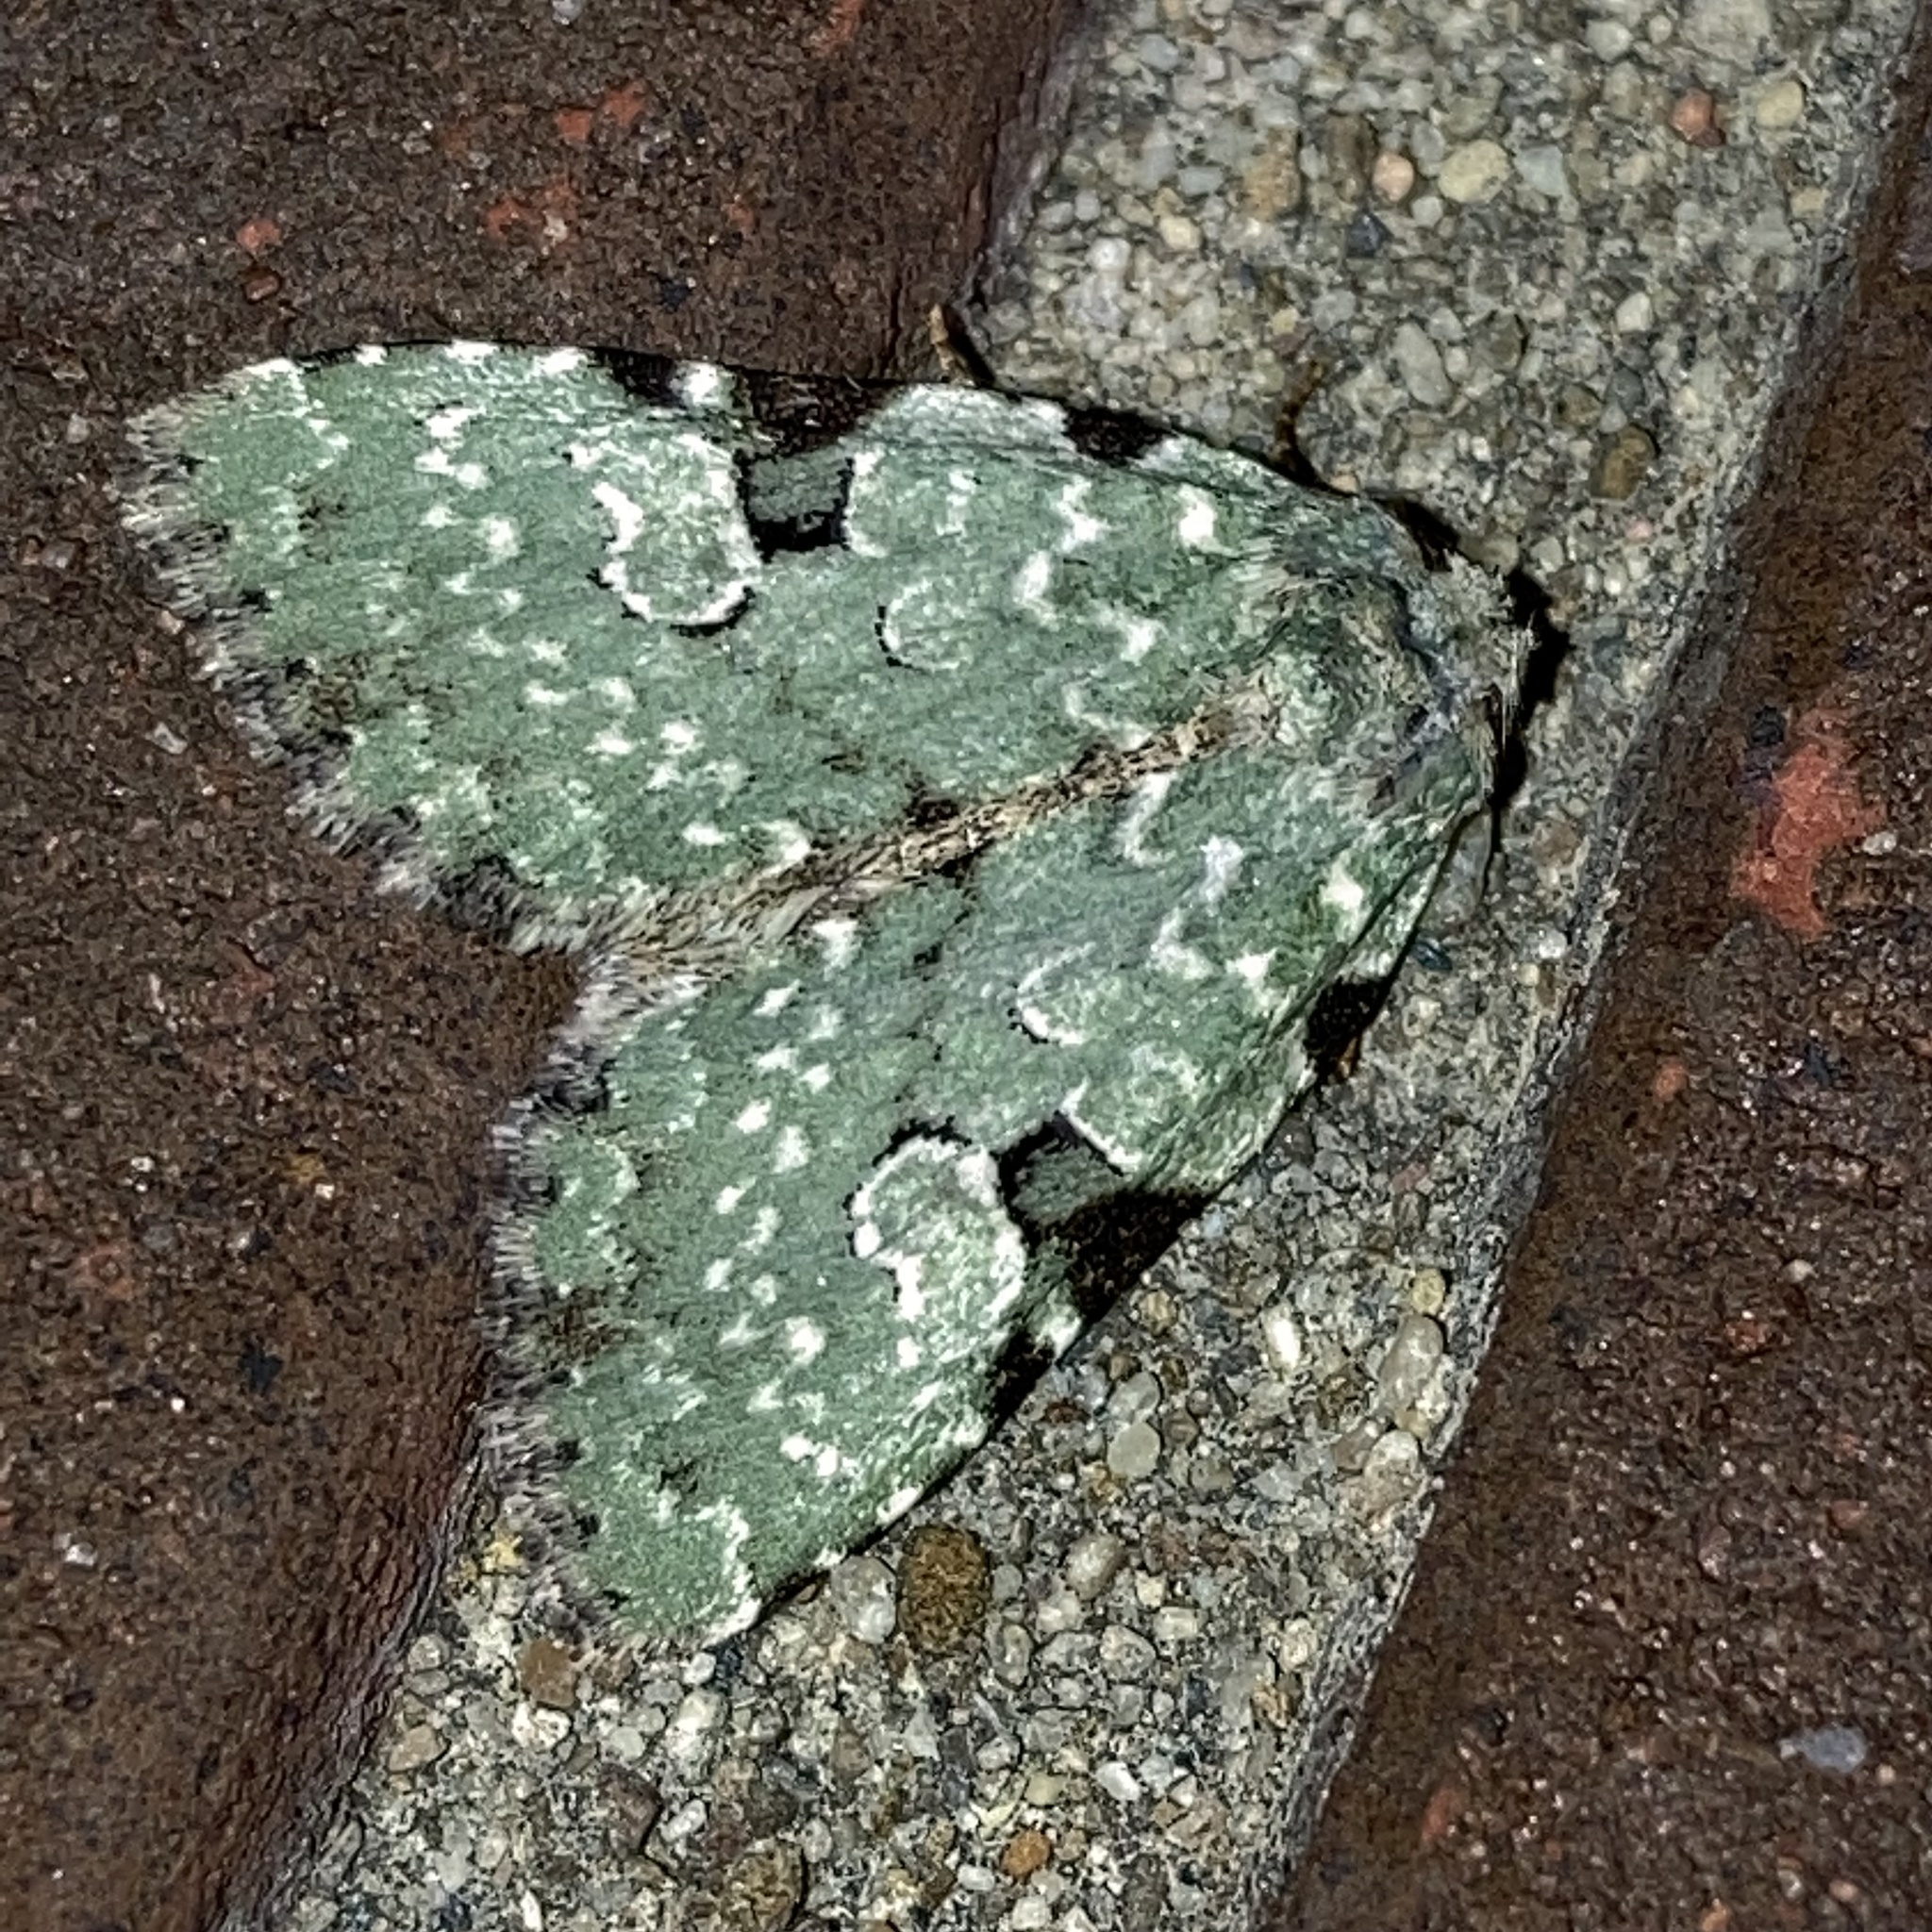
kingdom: Animalia
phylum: Arthropoda
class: Insecta
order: Lepidoptera
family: Noctuidae
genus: Leuconycta
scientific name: Leuconycta diphteroides
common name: Green leuconycta moth
